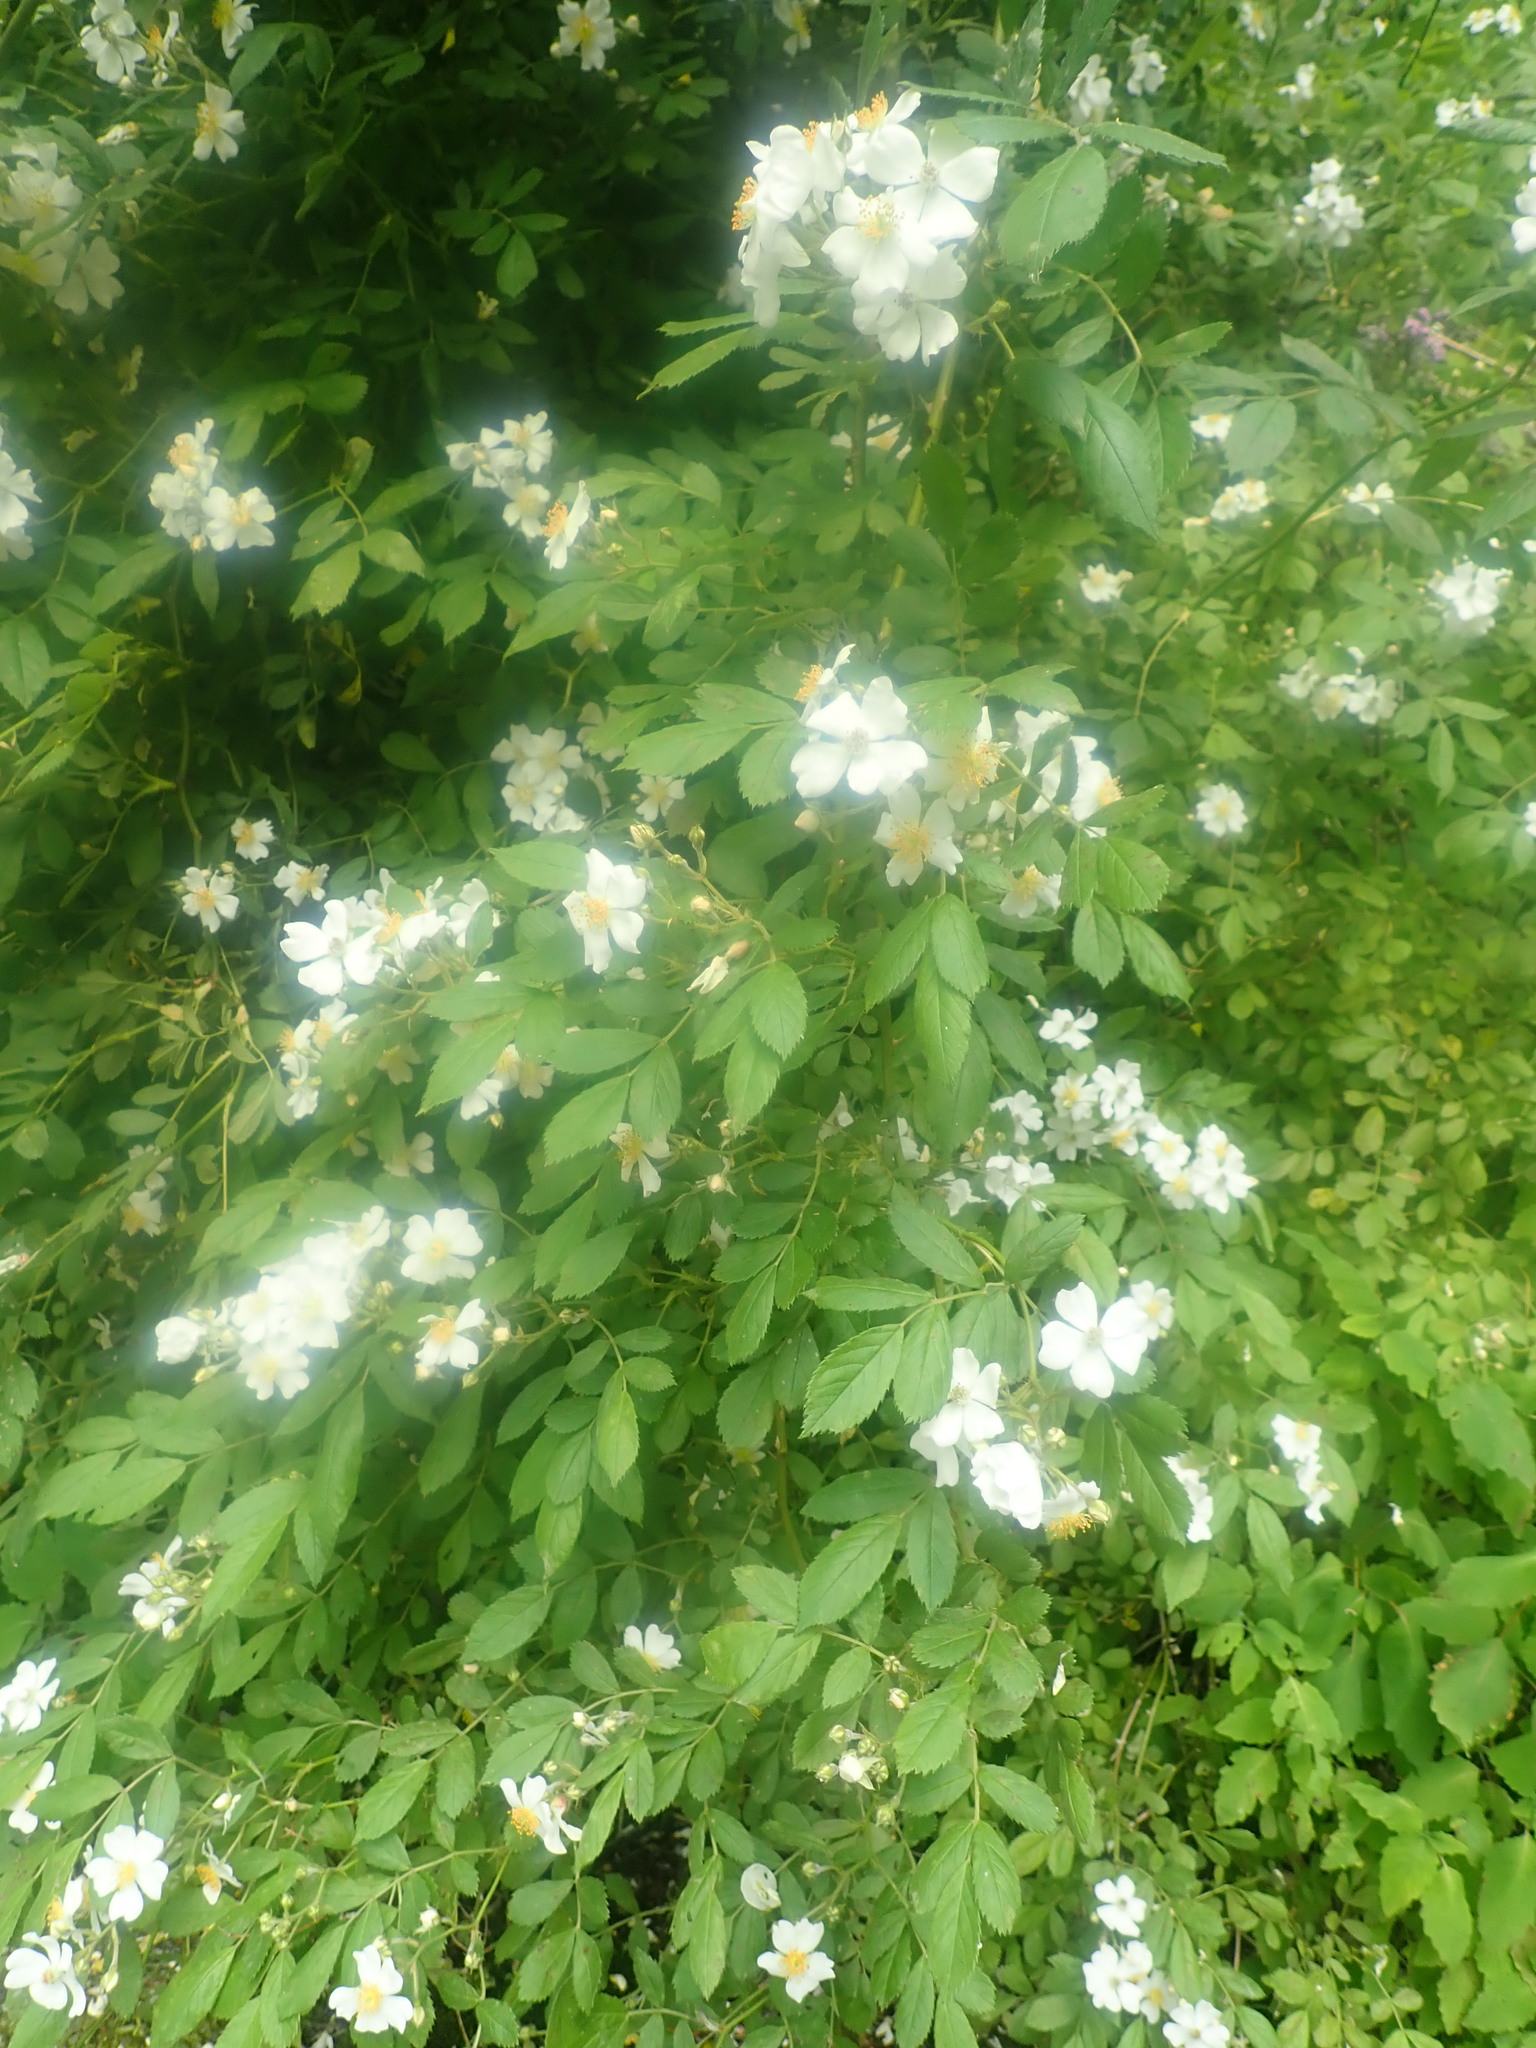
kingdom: Plantae
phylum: Tracheophyta
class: Magnoliopsida
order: Rosales
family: Rosaceae
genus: Rosa
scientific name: Rosa multiflora
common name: Multiflora rose
